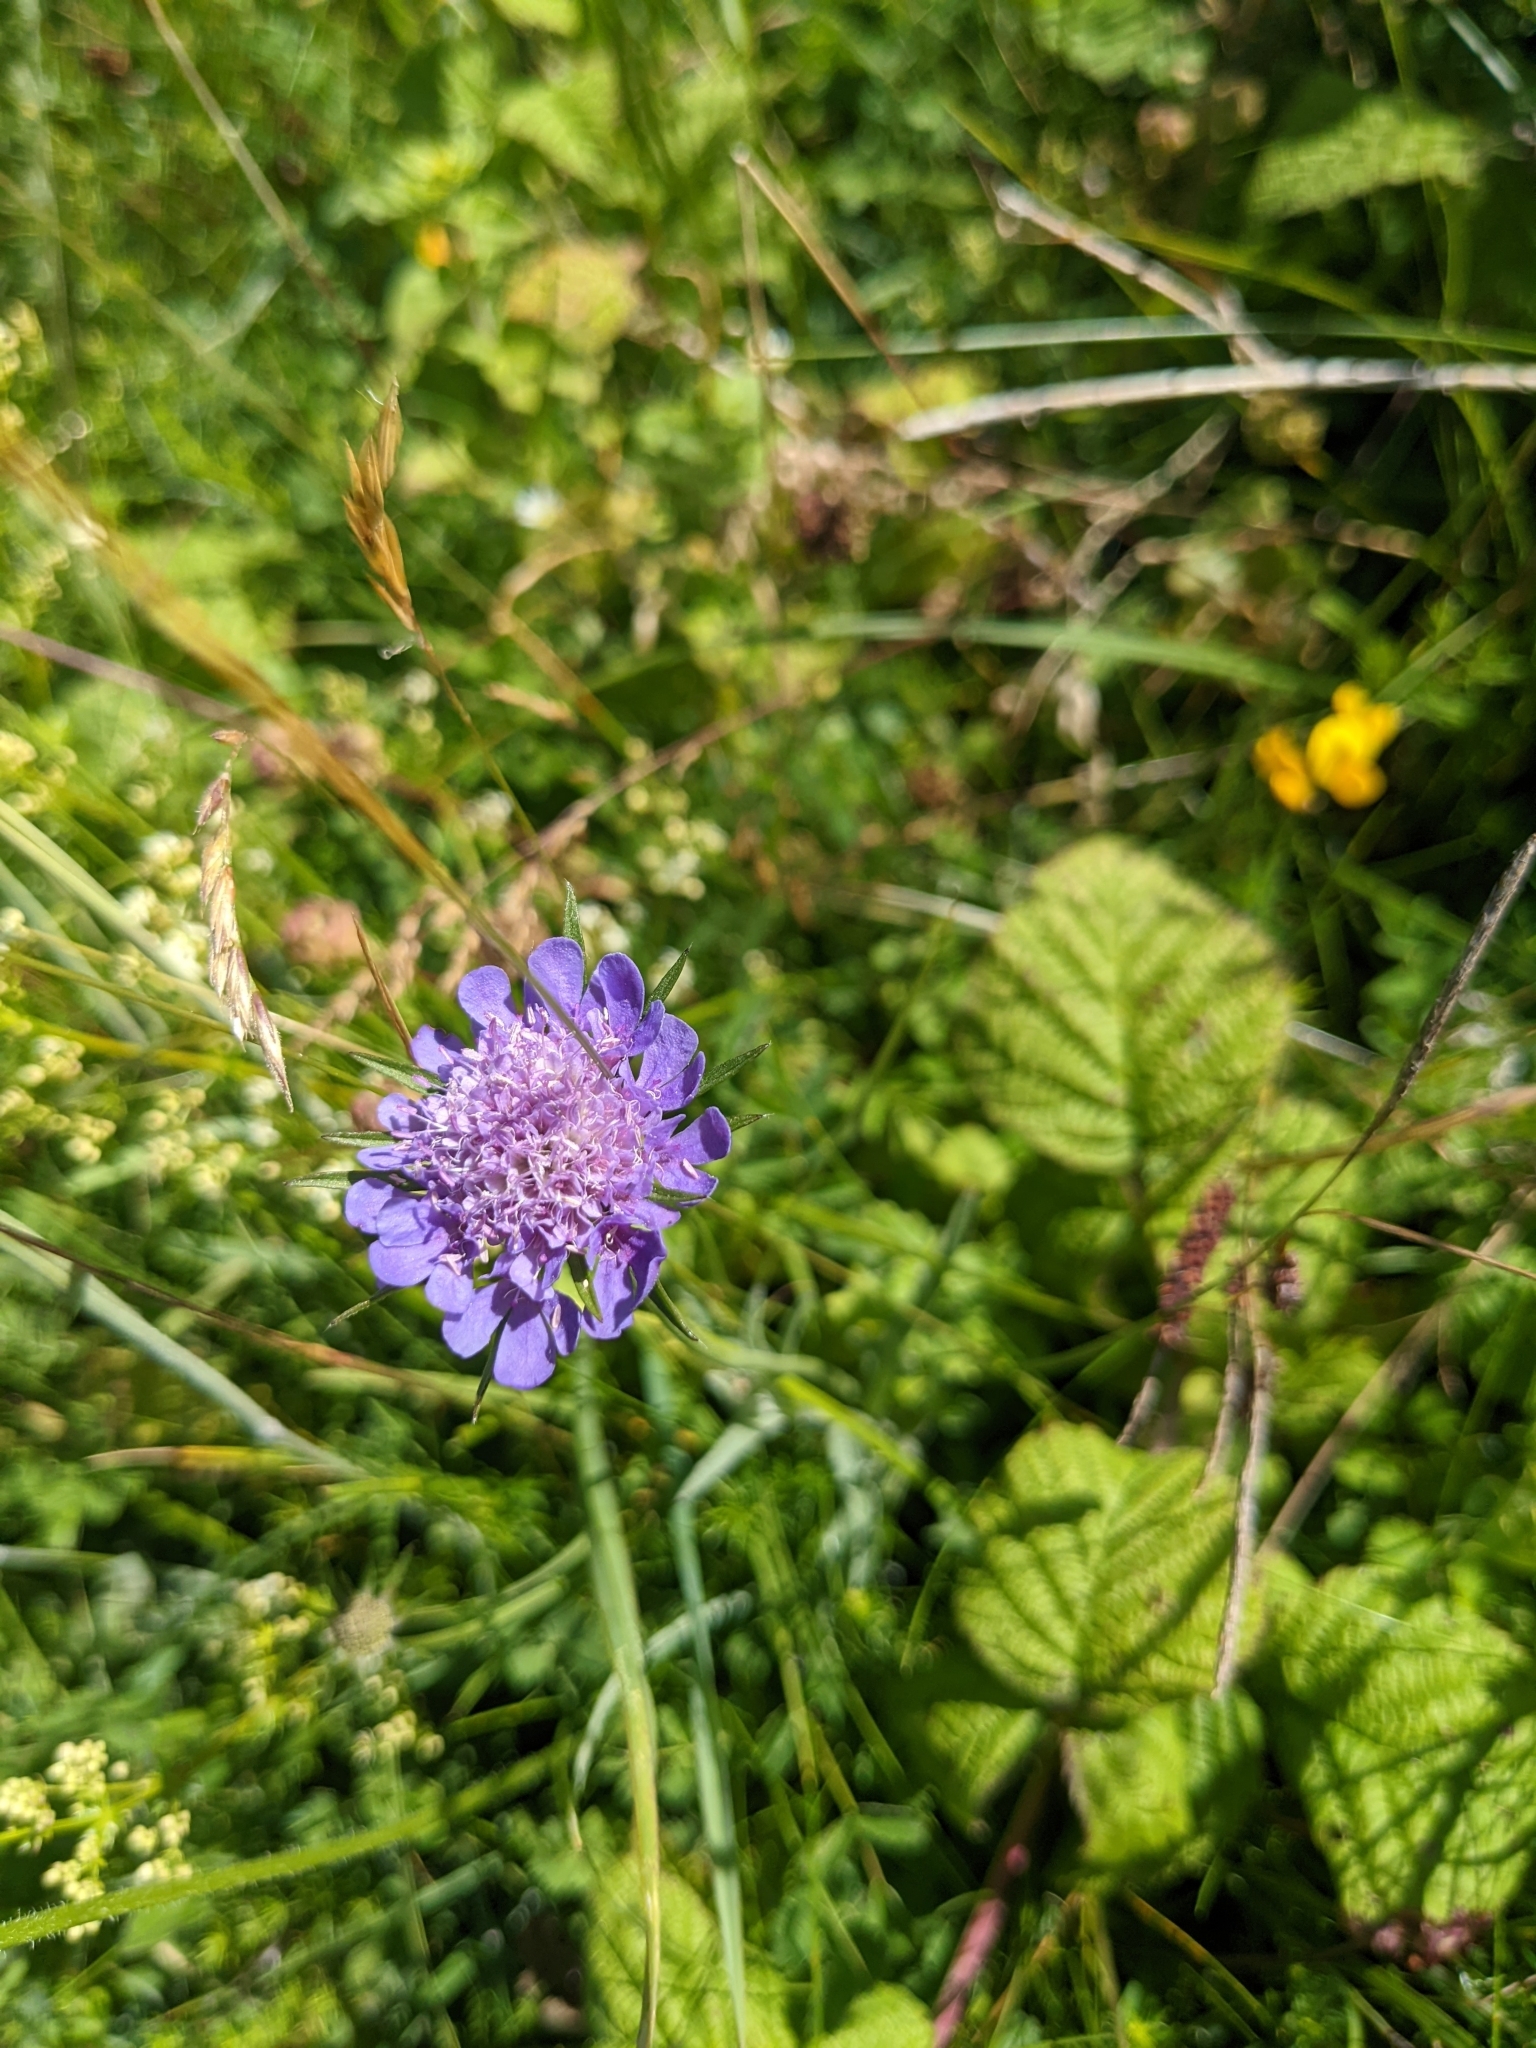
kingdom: Plantae
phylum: Tracheophyta
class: Magnoliopsida
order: Dipsacales
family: Caprifoliaceae
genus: Scabiosa
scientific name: Scabiosa columbaria
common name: Small scabious
